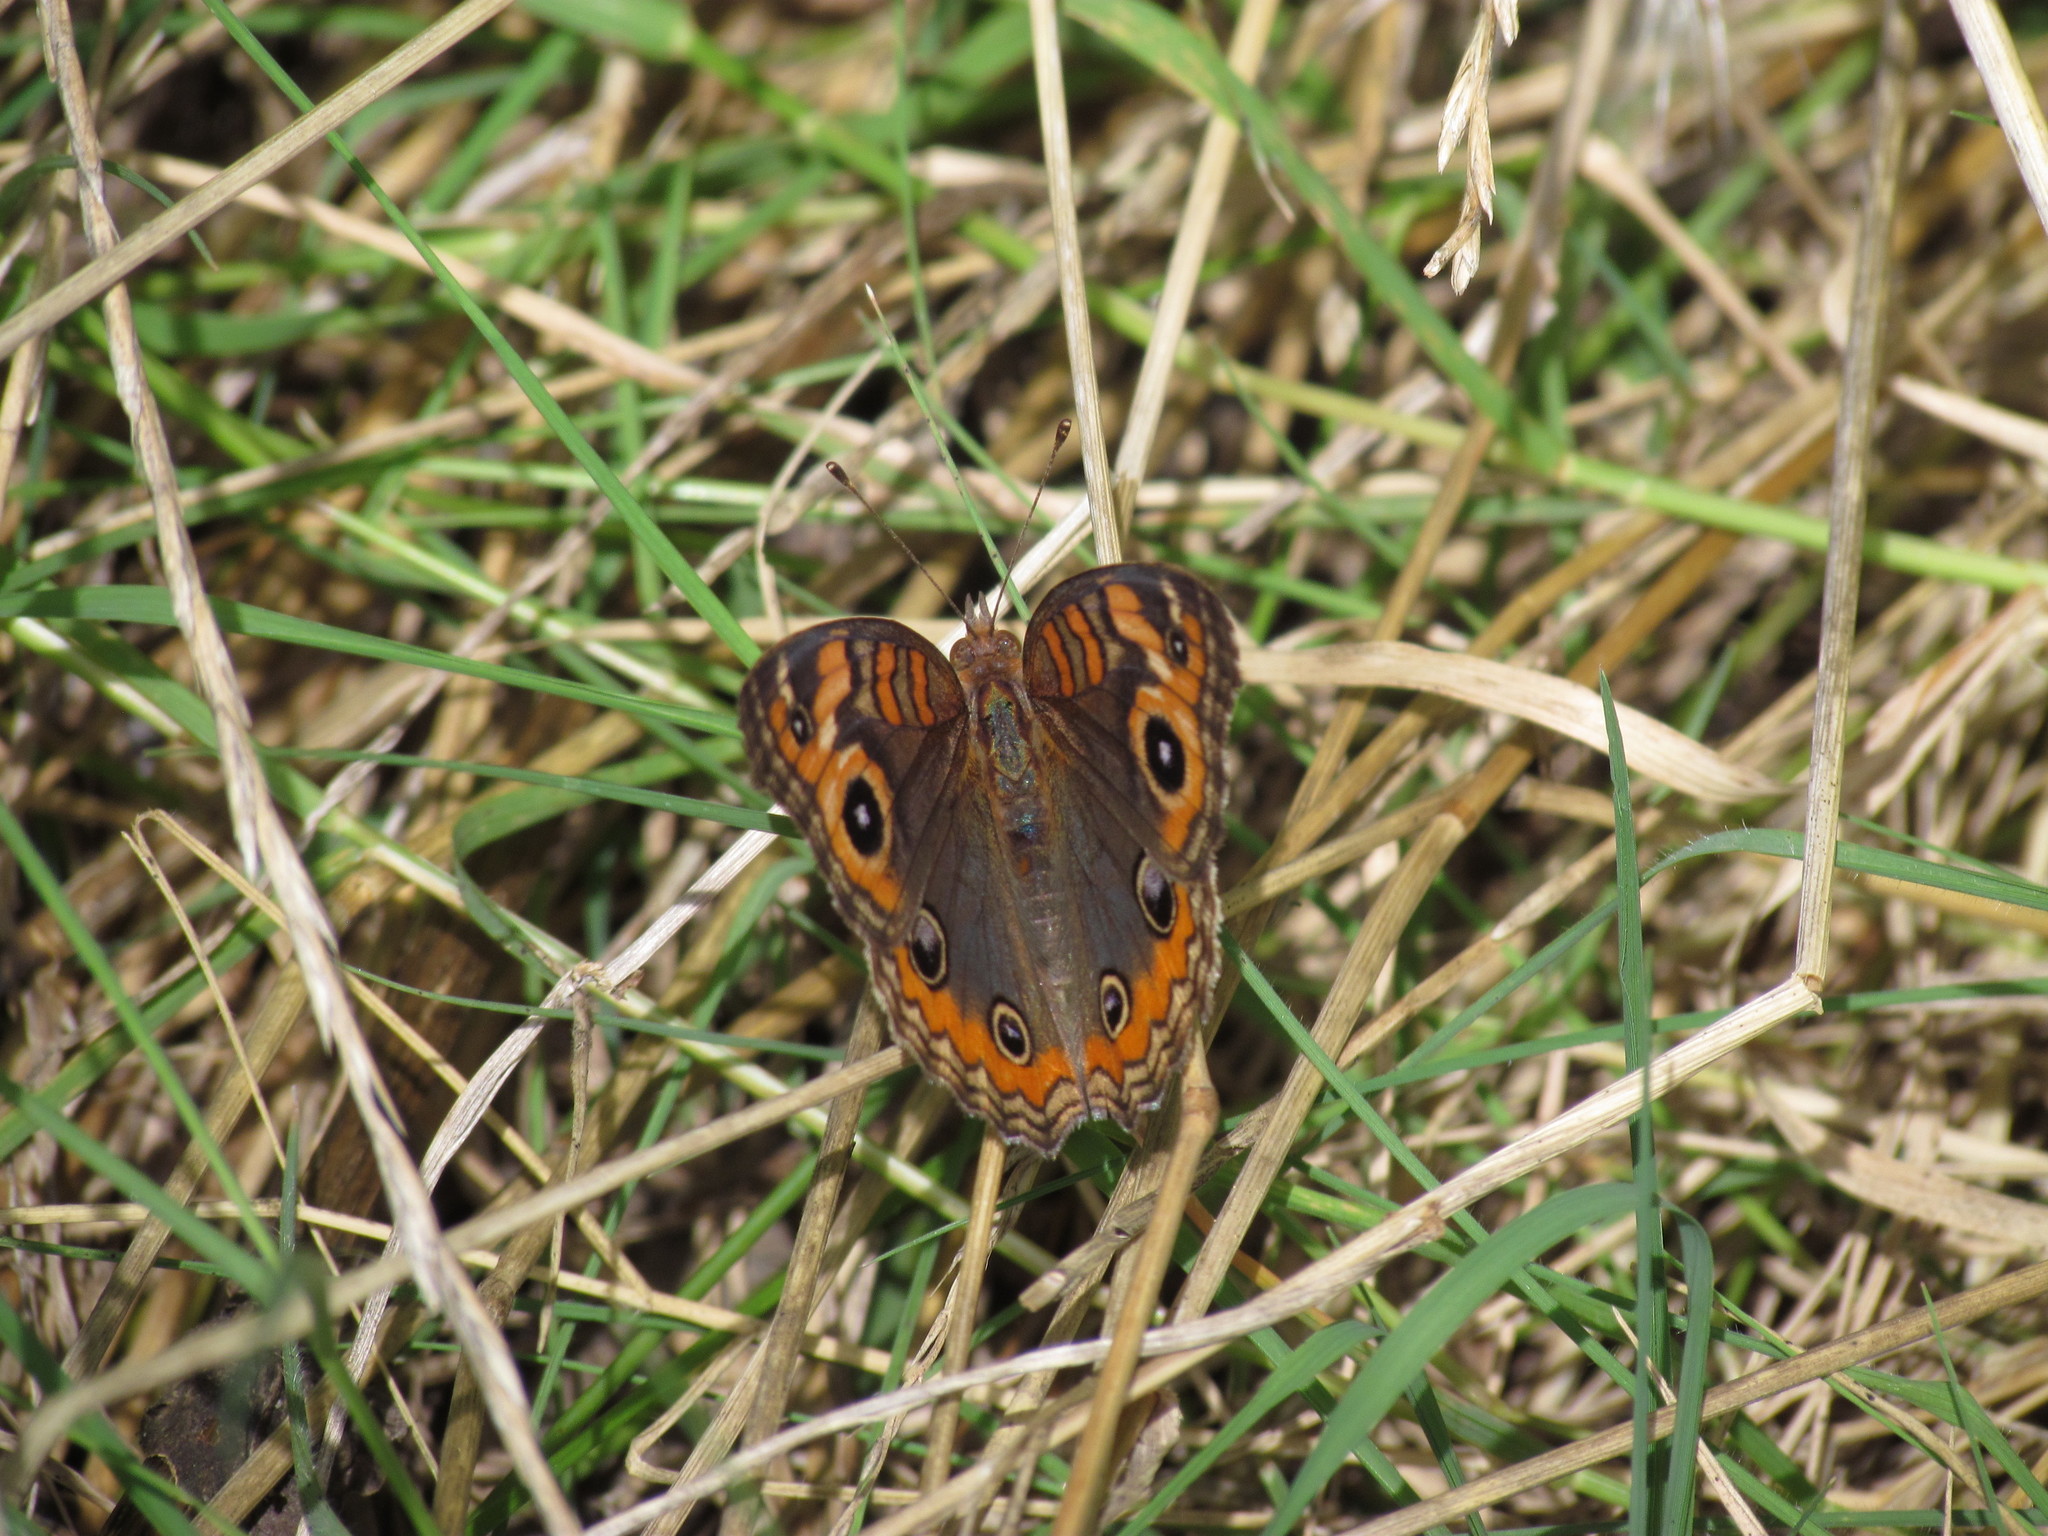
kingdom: Animalia
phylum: Arthropoda
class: Insecta
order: Lepidoptera
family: Nymphalidae
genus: Junonia
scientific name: Junonia lavinia
